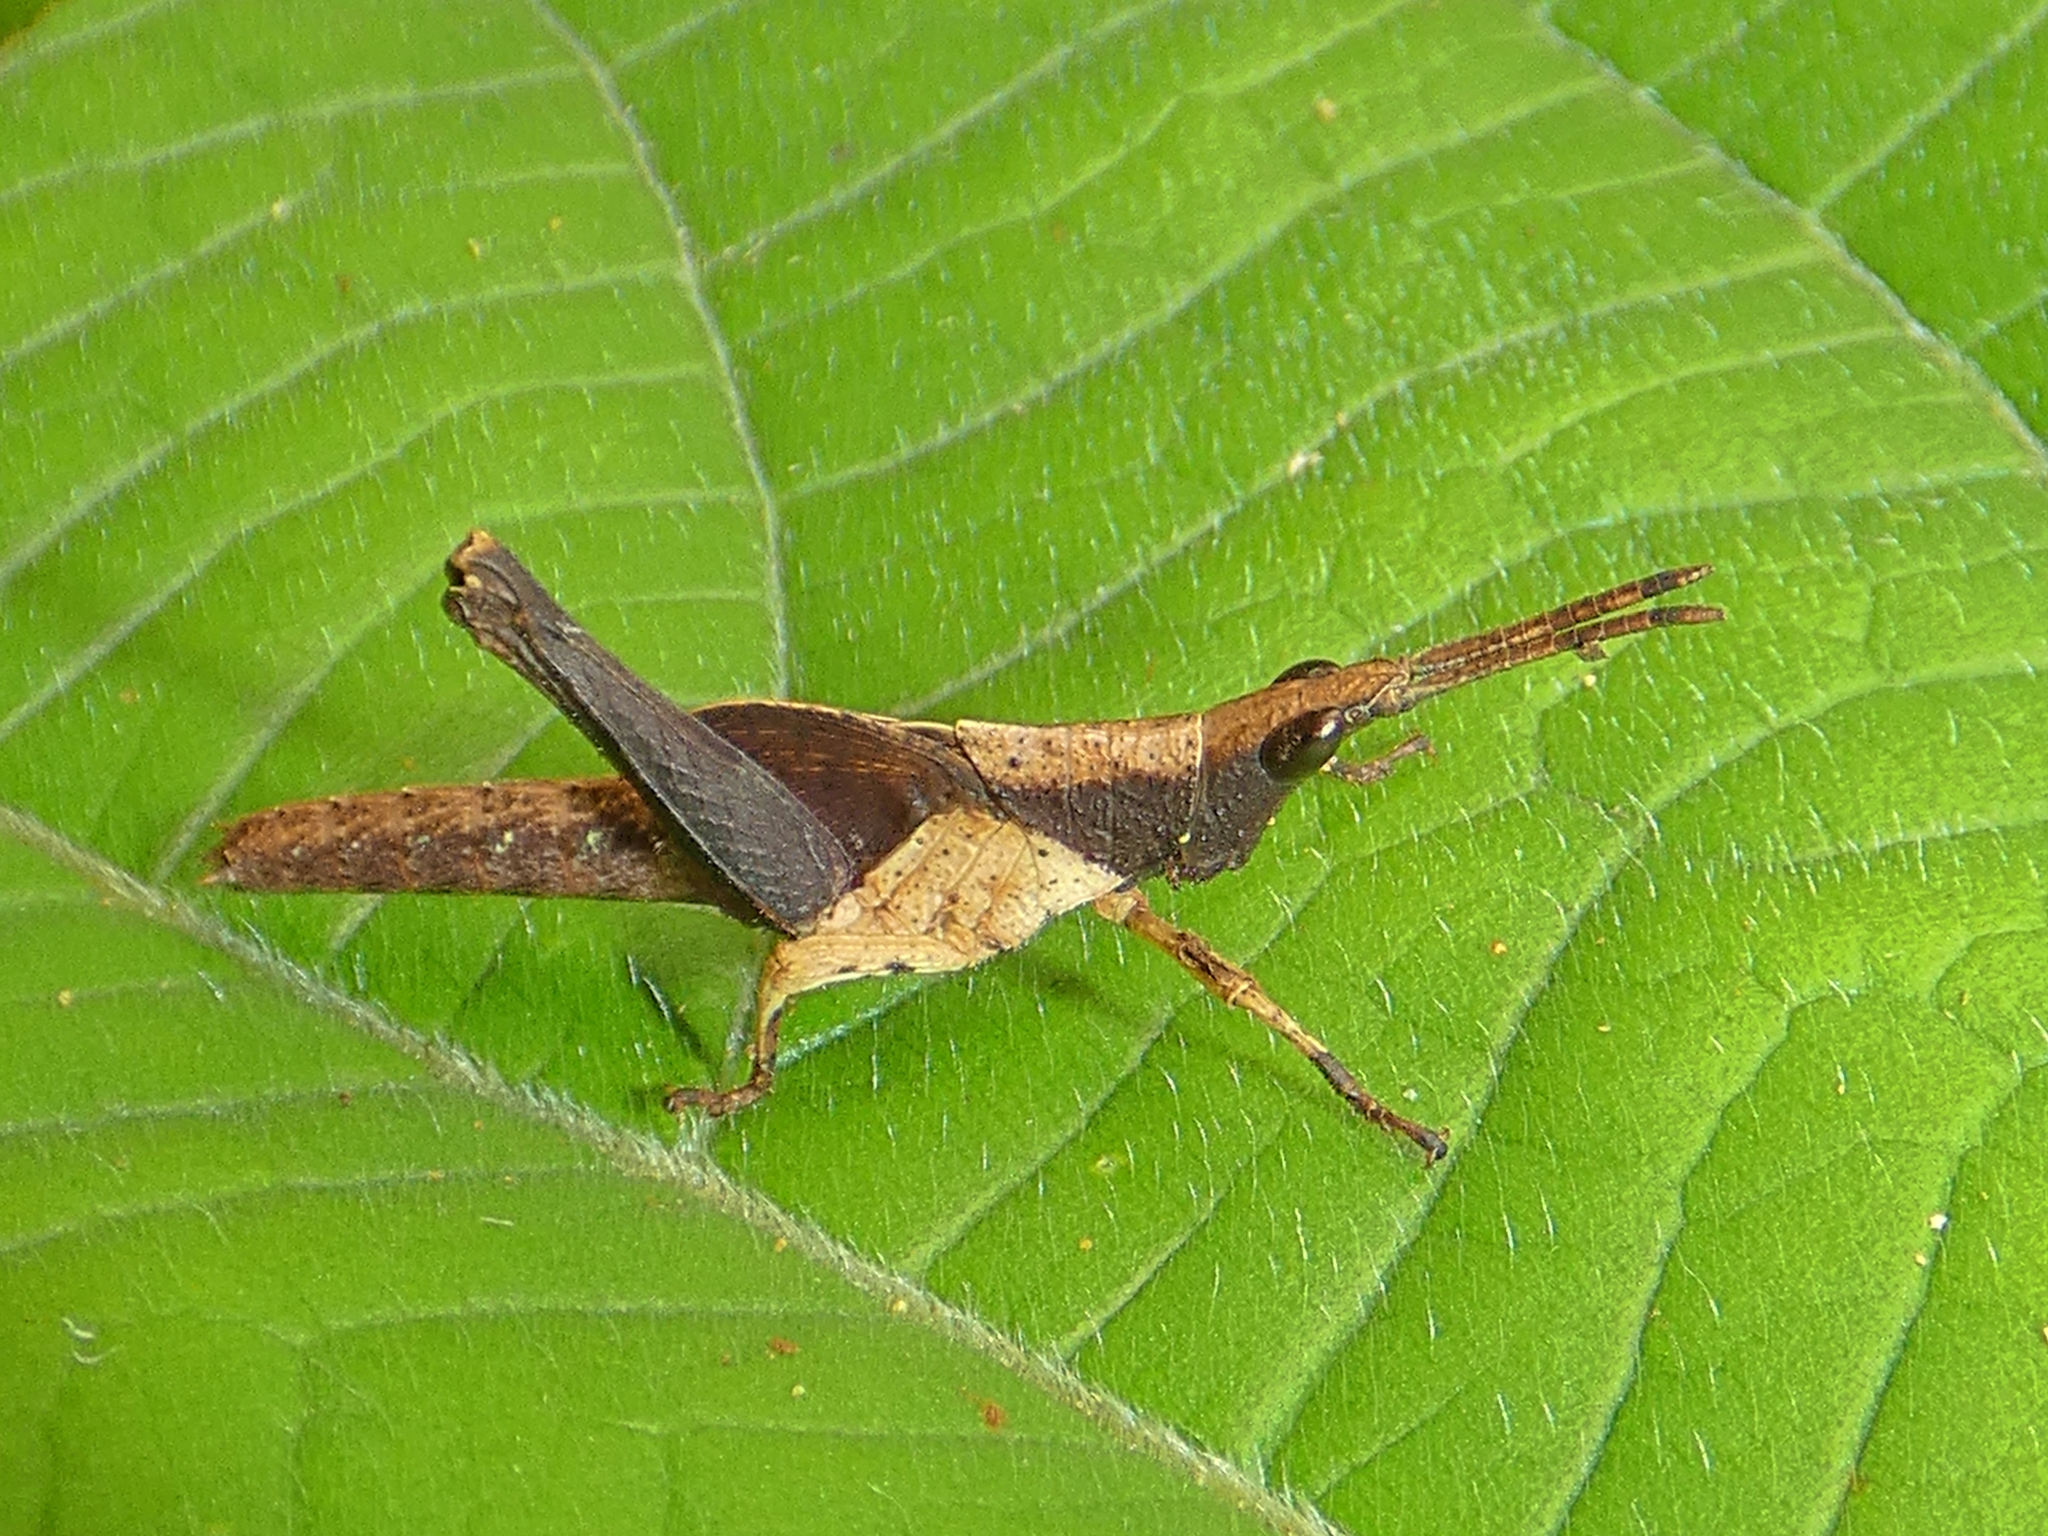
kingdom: Animalia
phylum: Arthropoda
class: Insecta
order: Orthoptera
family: Pyrgomorphidae
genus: Desmoptera
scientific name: Desmoptera truncatipennis
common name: Large forest pyrgomorph
